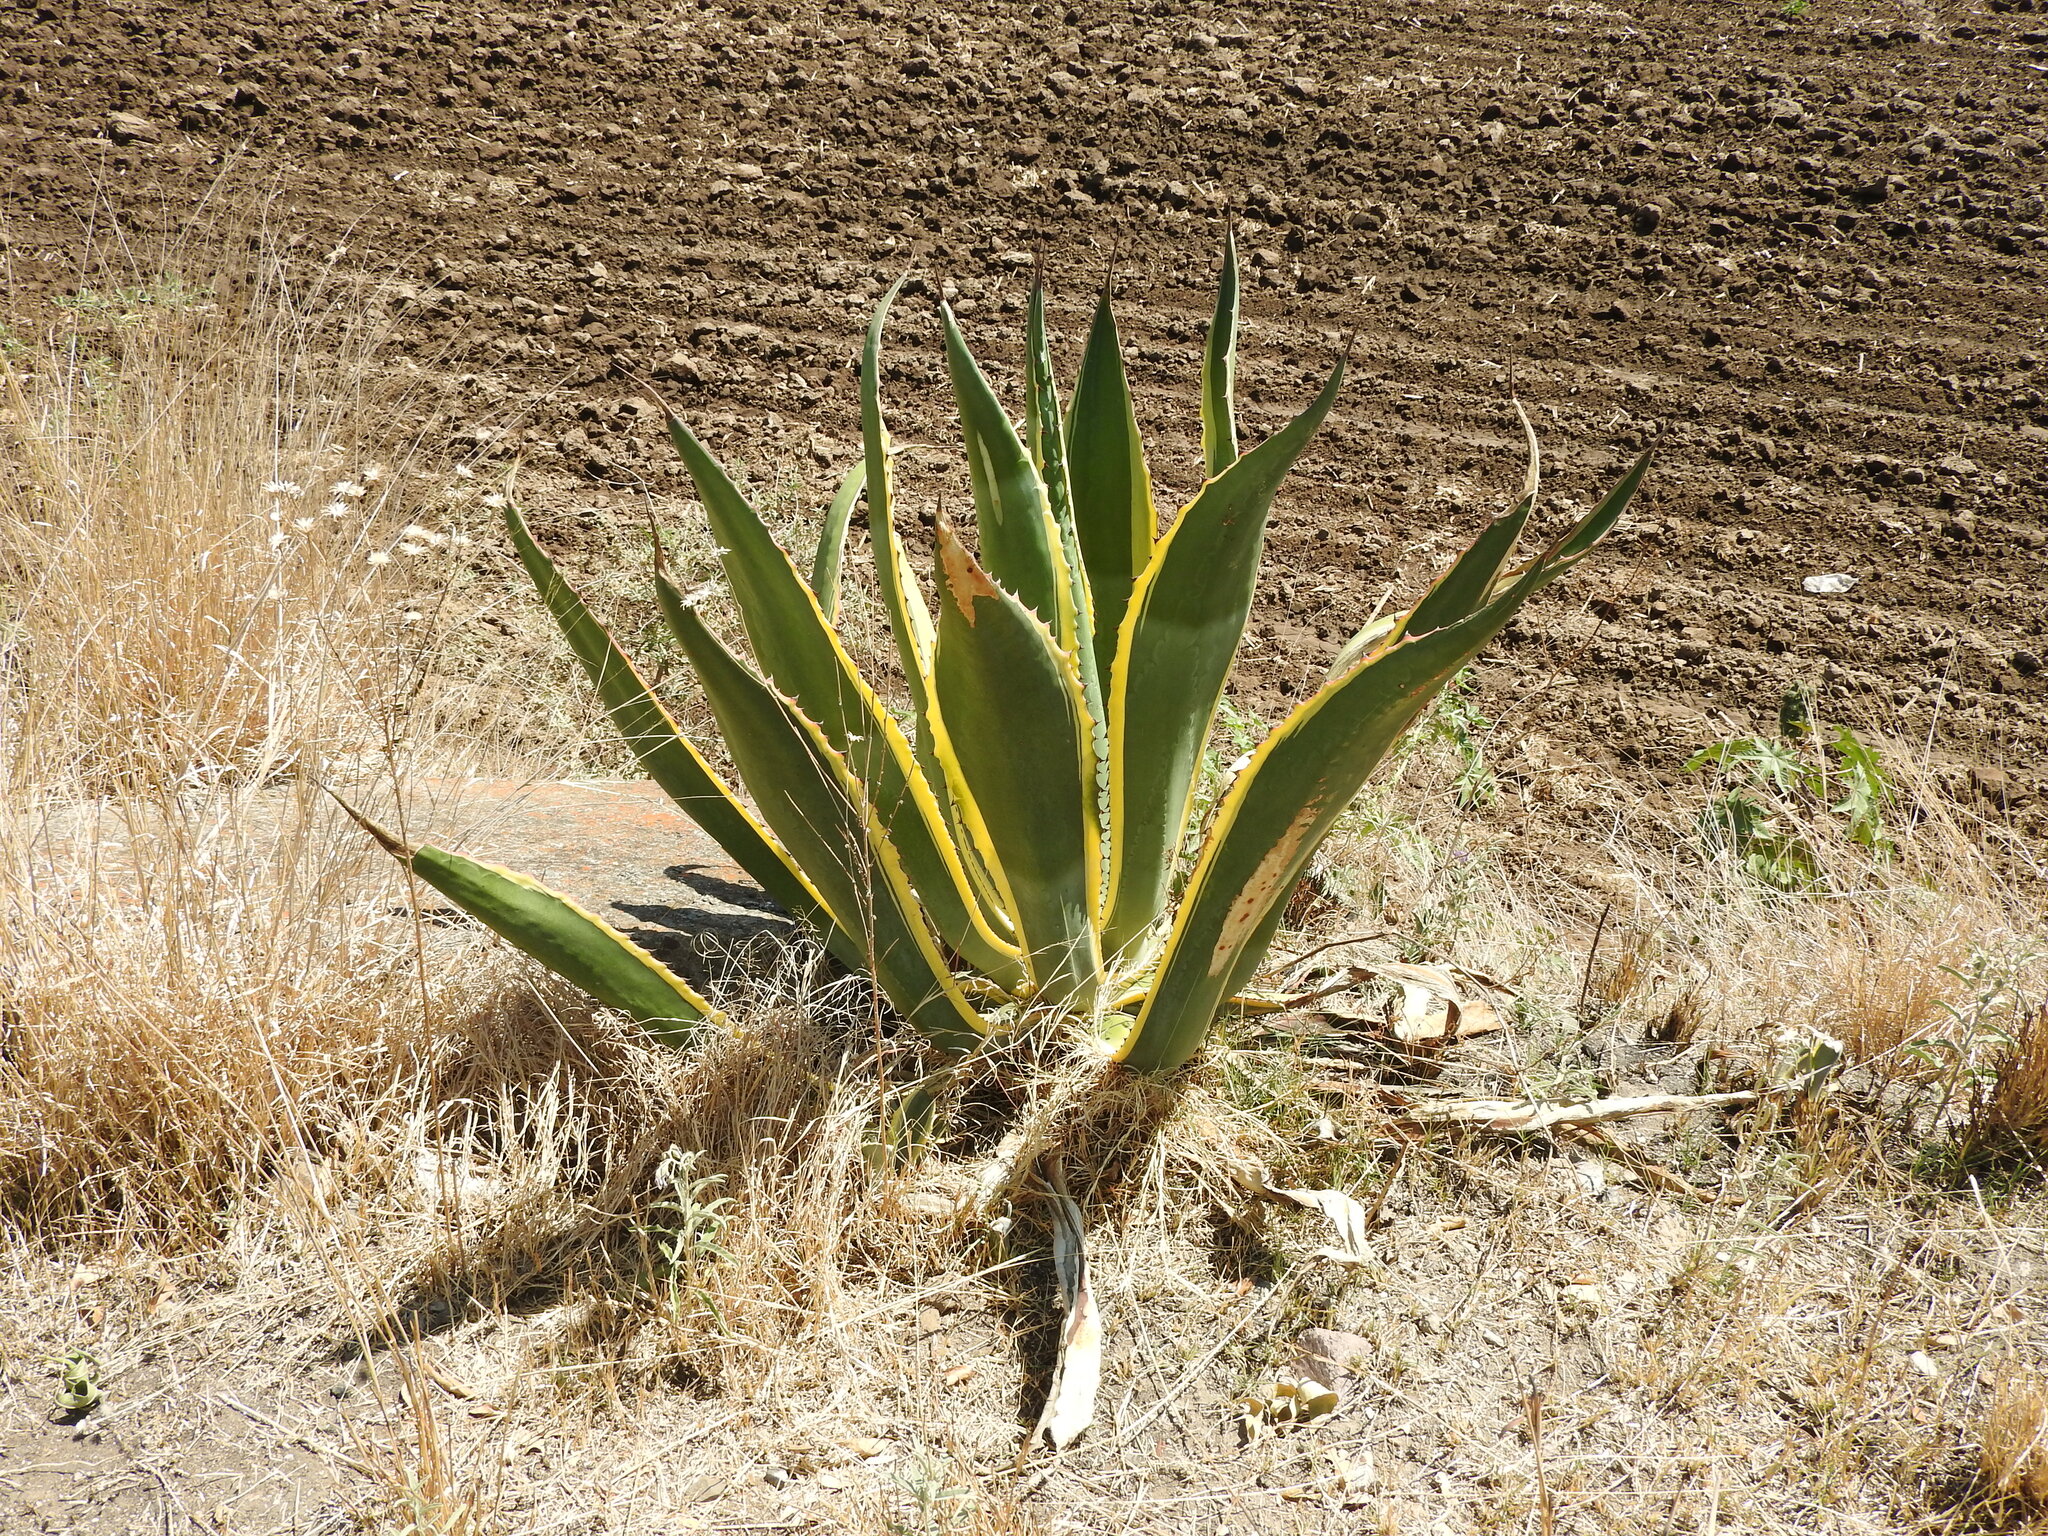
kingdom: Plantae
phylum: Tracheophyta
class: Liliopsida
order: Asparagales
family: Asparagaceae
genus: Agave
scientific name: Agave americana
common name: Centuryplant
